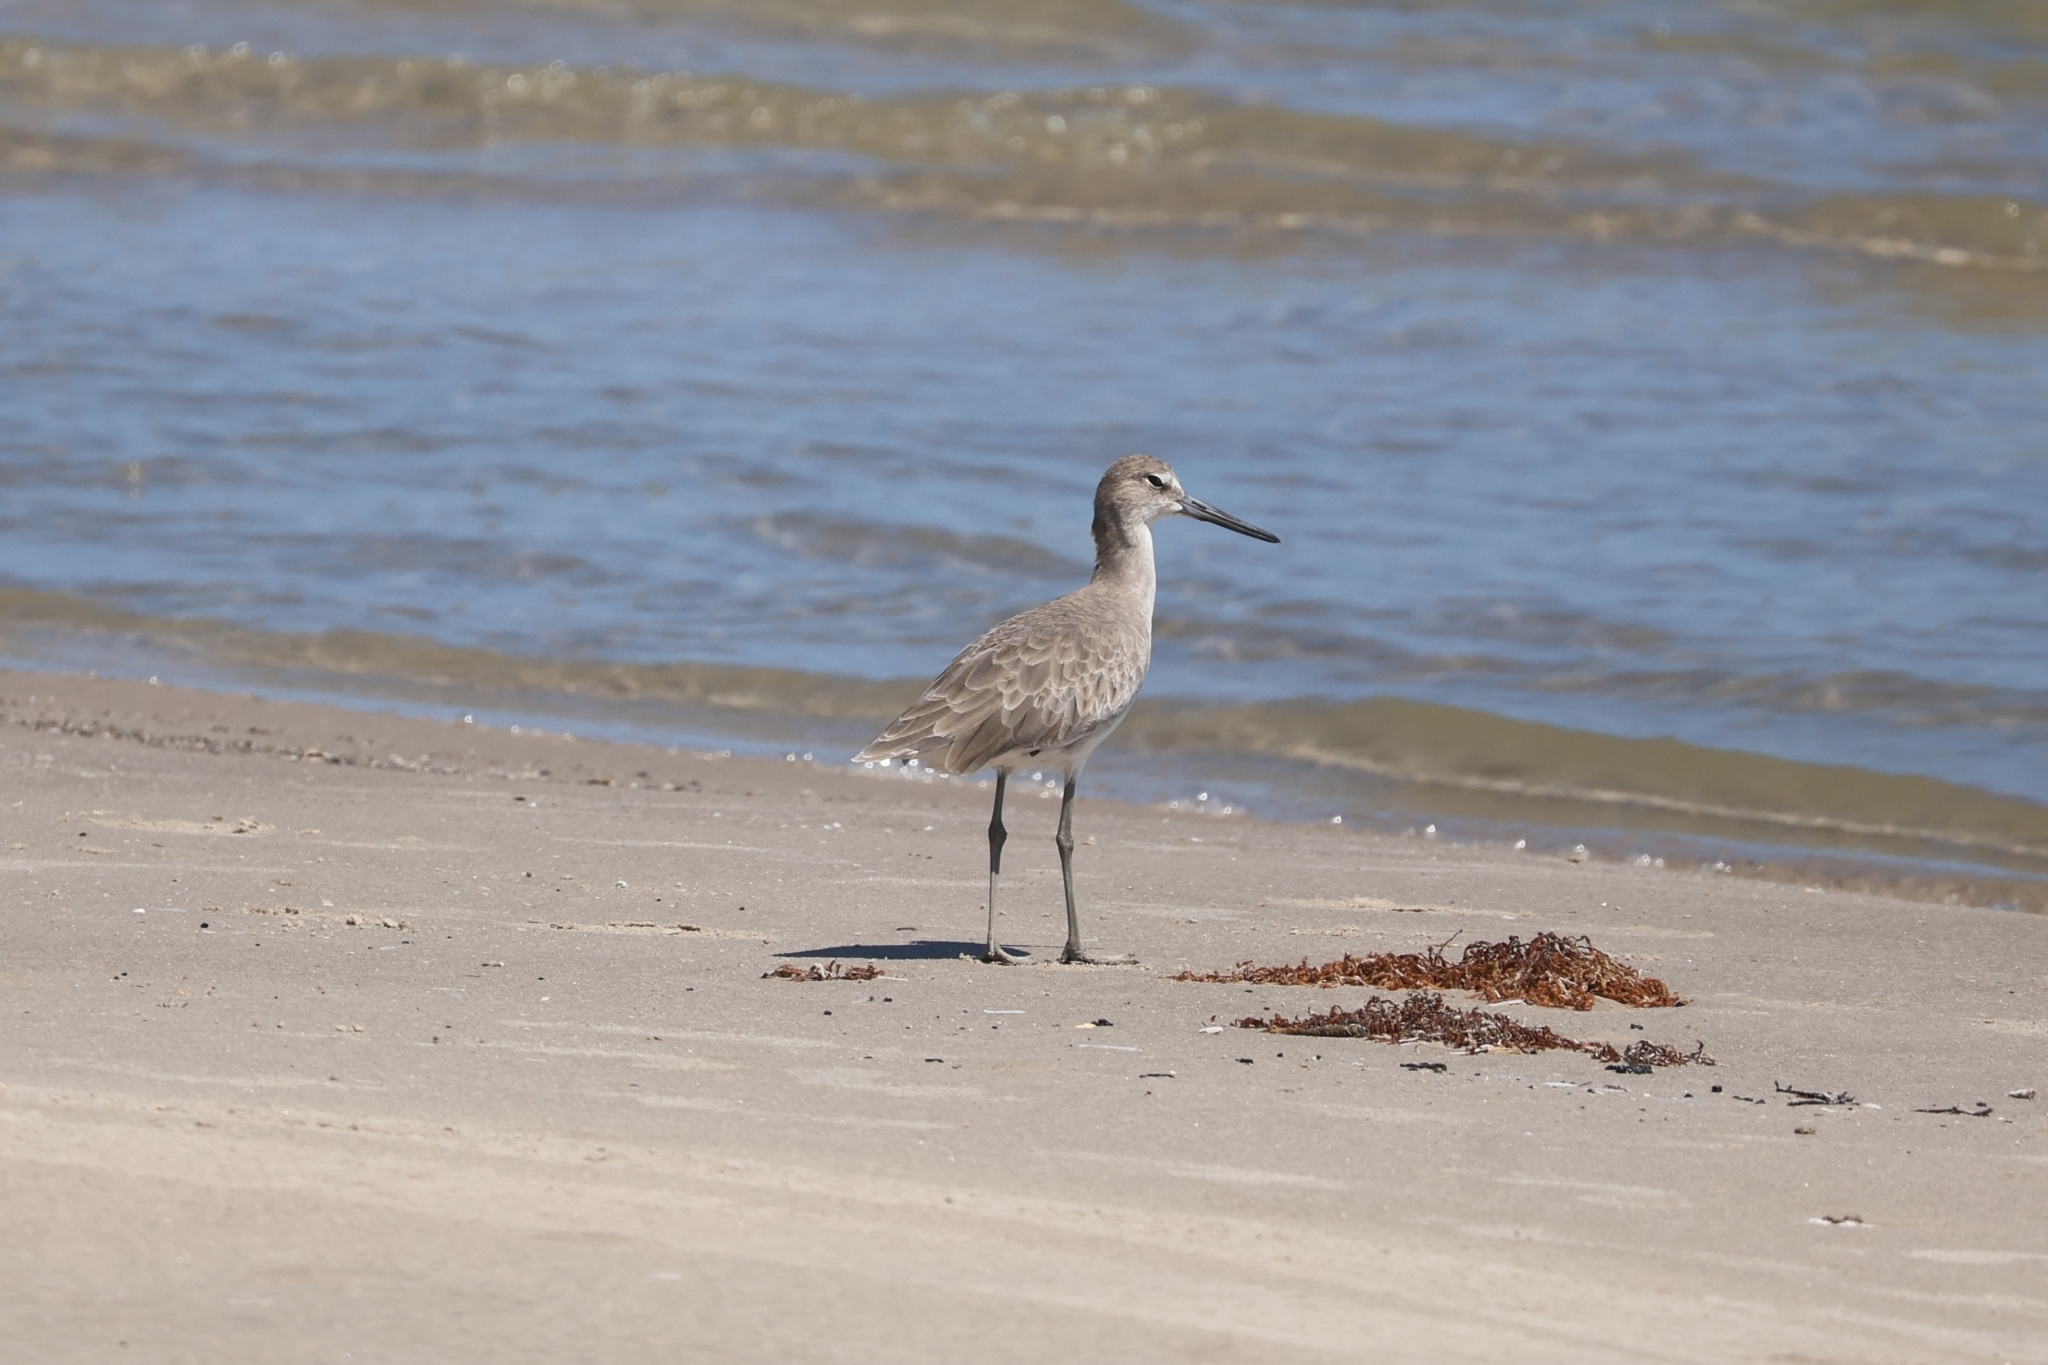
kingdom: Animalia
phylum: Chordata
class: Aves
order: Charadriiformes
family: Scolopacidae
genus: Tringa
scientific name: Tringa semipalmata
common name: Willet
